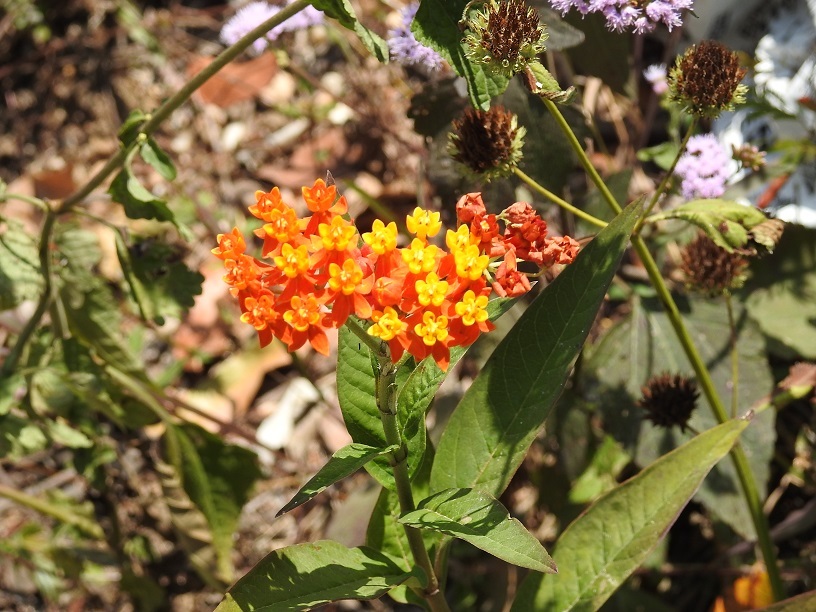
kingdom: Plantae
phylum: Tracheophyta
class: Magnoliopsida
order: Gentianales
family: Apocynaceae
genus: Asclepias
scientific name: Asclepias curassavica
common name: Bloodflower
